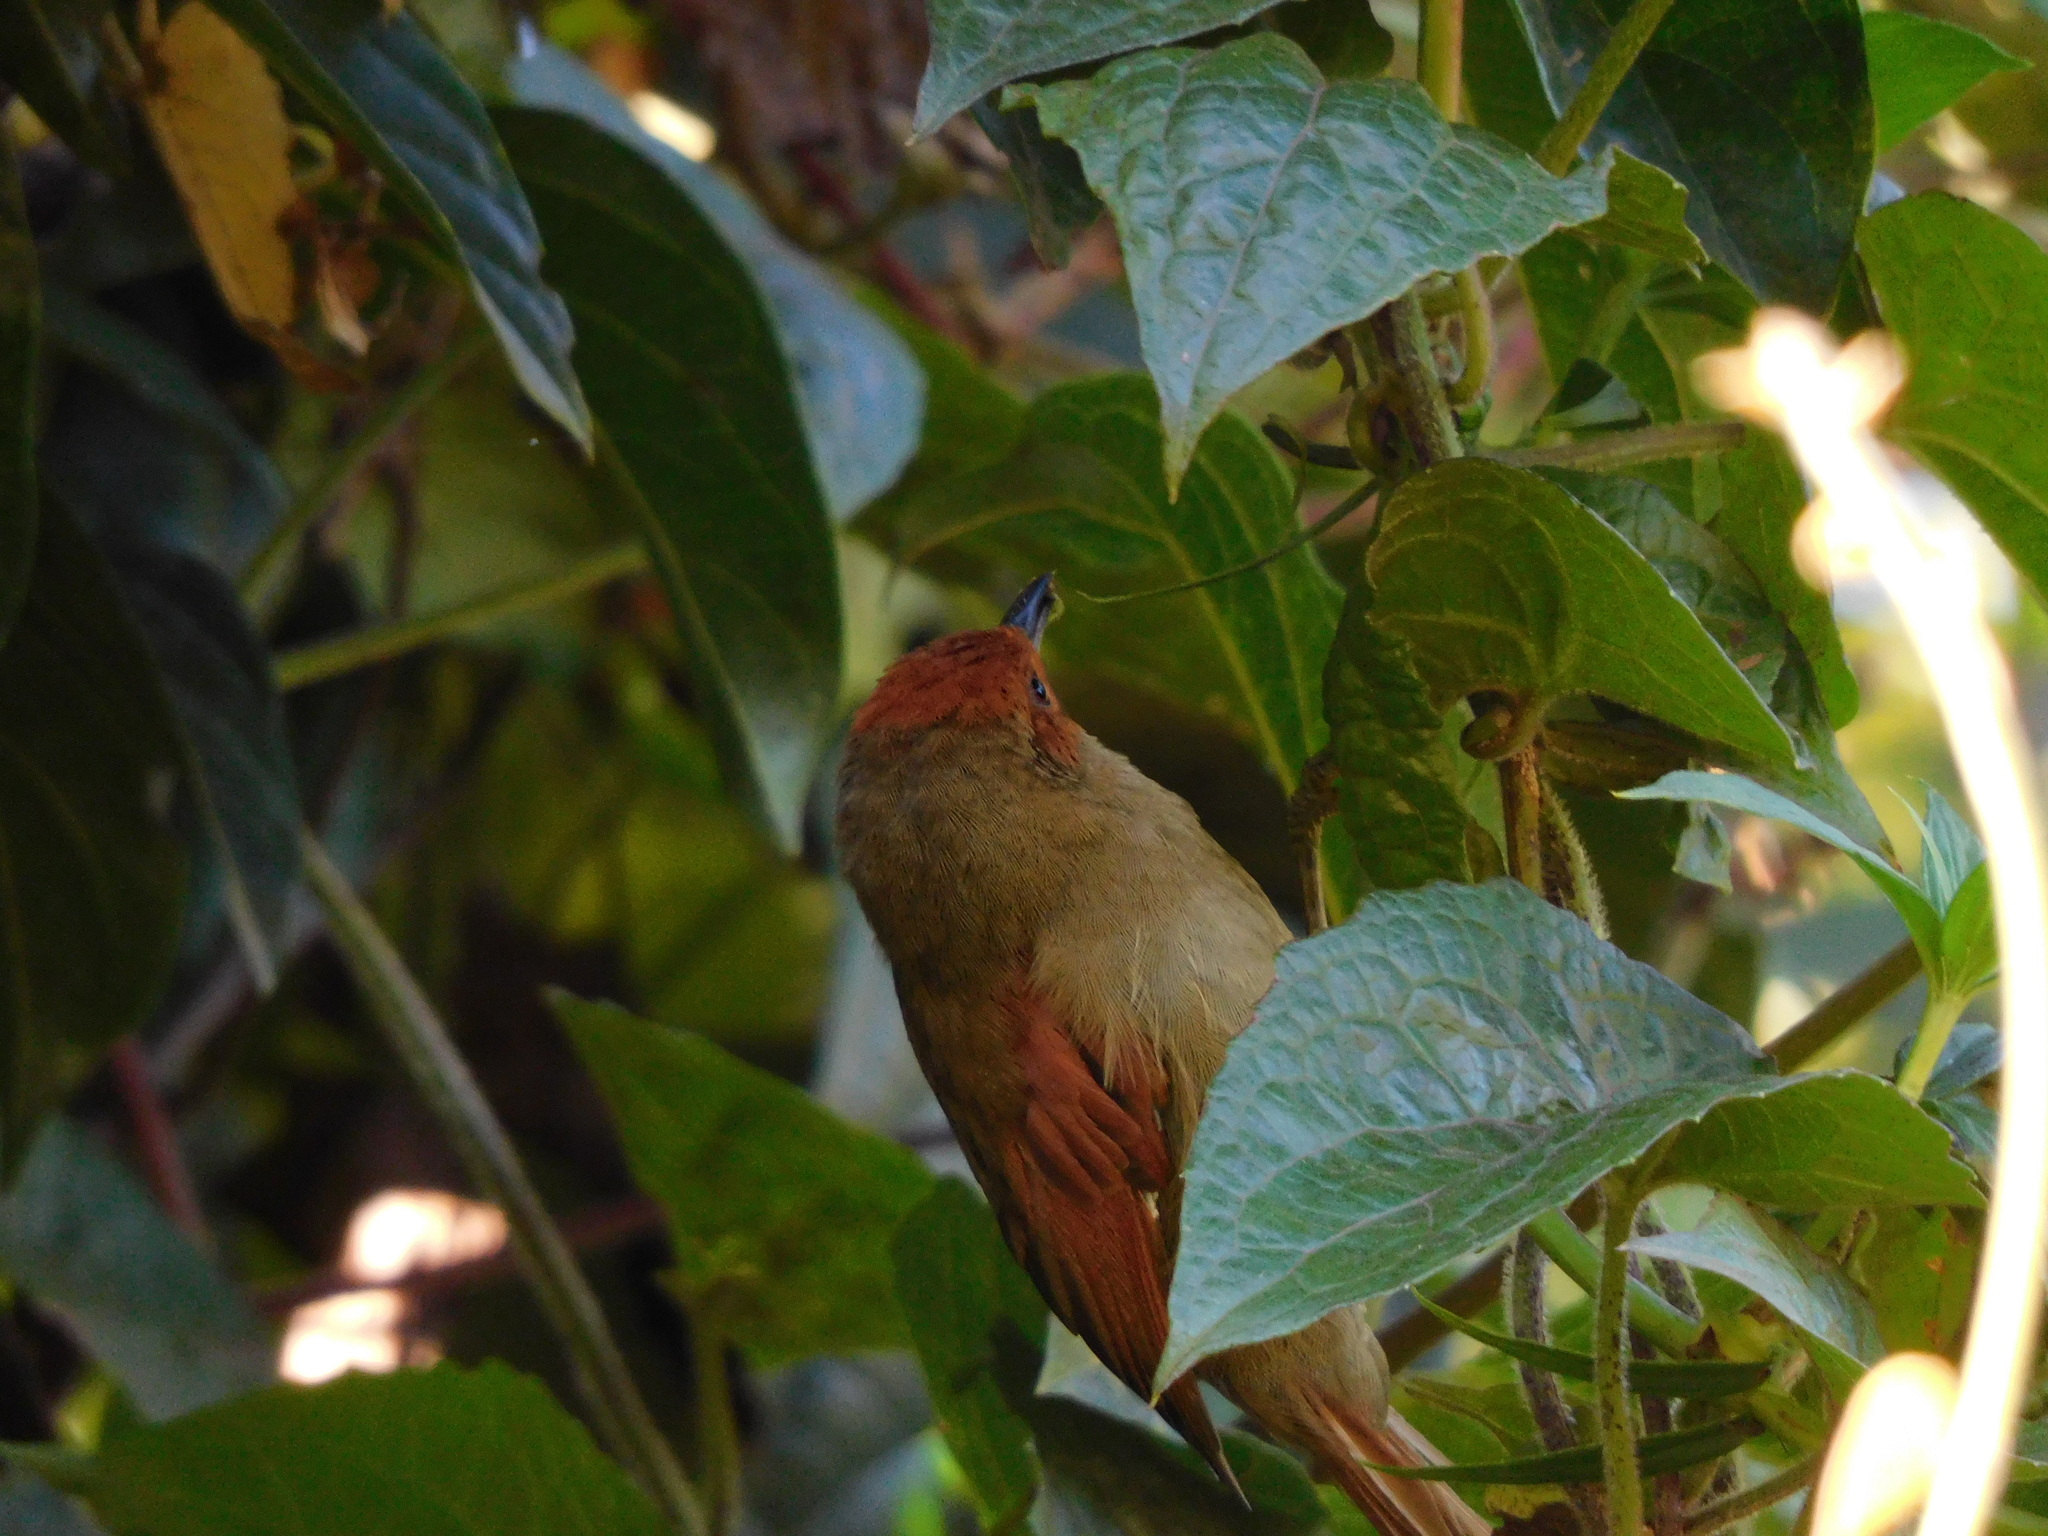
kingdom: Animalia
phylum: Chordata
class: Aves
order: Passeriformes
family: Furnariidae
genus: Cranioleuca
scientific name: Cranioleuca erythrops
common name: Red-faced spinetail
